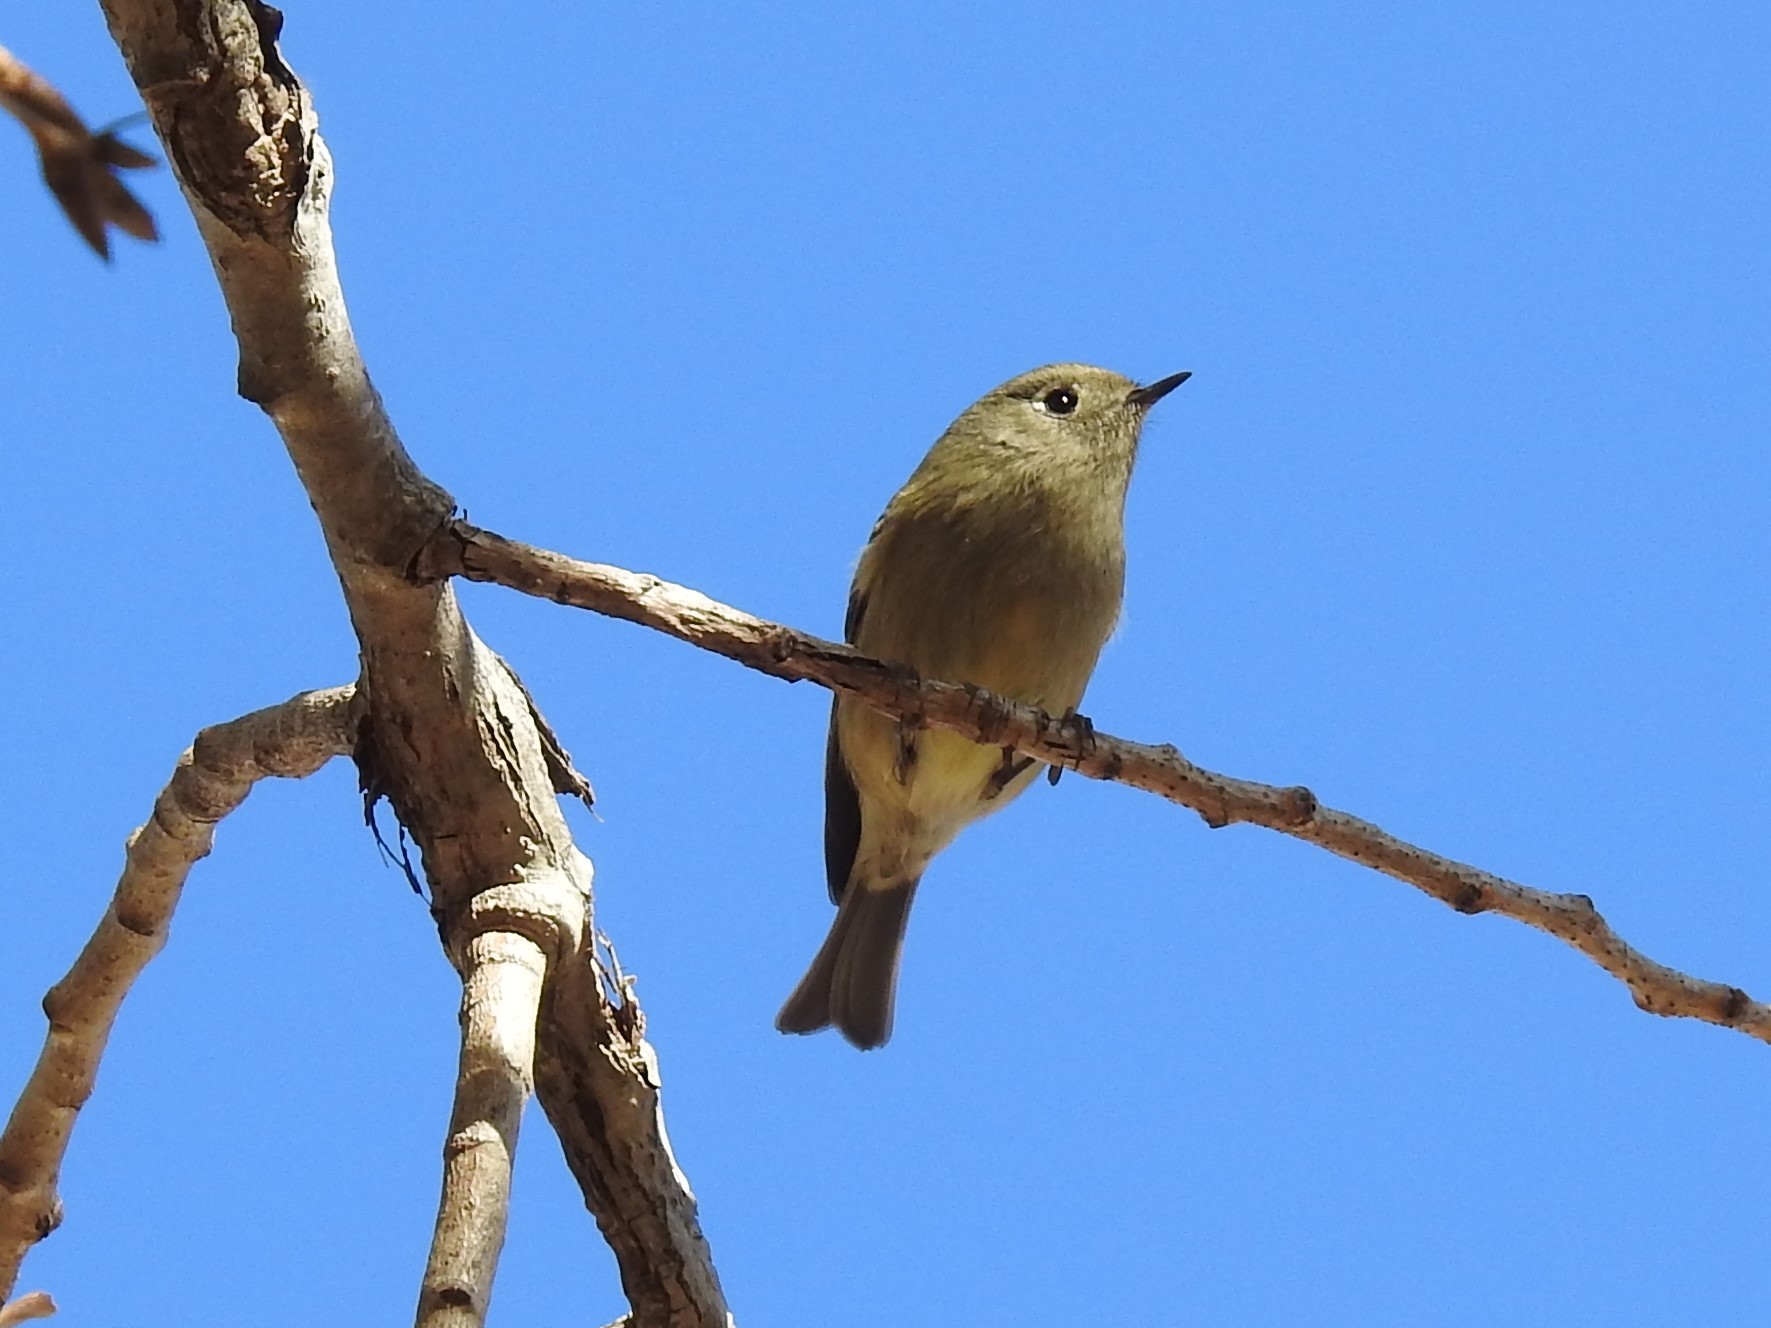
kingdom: Animalia
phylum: Chordata
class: Aves
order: Passeriformes
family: Regulidae
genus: Regulus
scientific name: Regulus calendula
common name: Ruby-crowned kinglet
